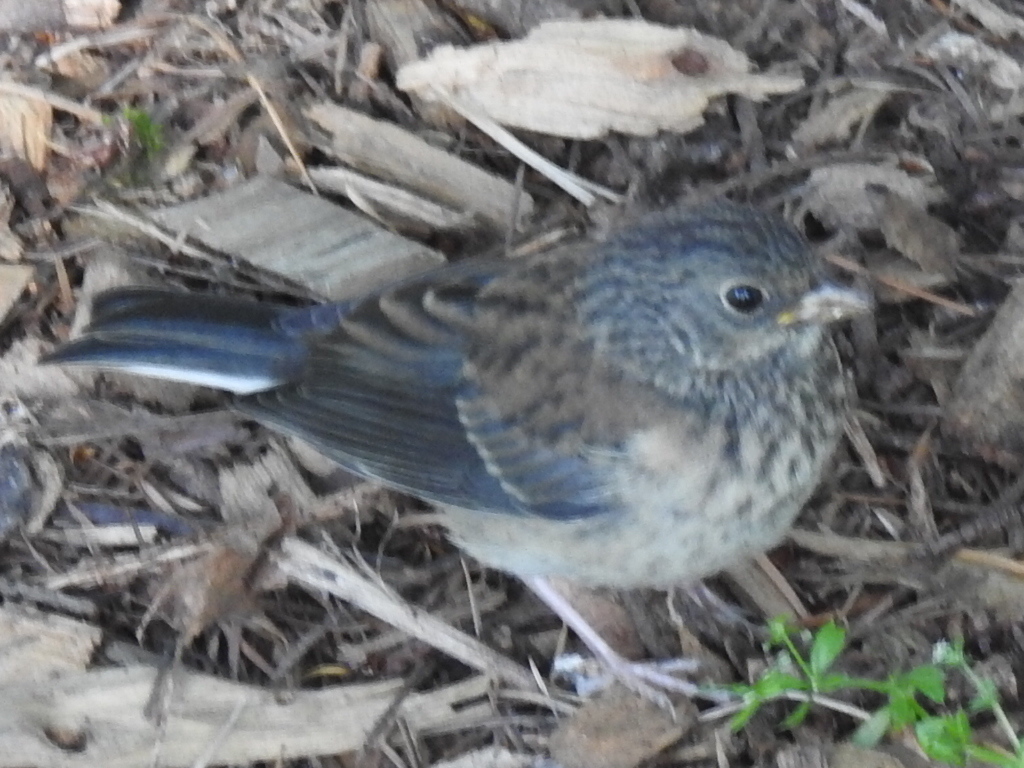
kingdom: Animalia
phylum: Chordata
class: Aves
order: Passeriformes
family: Passerellidae
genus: Junco
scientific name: Junco hyemalis
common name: Dark-eyed junco
